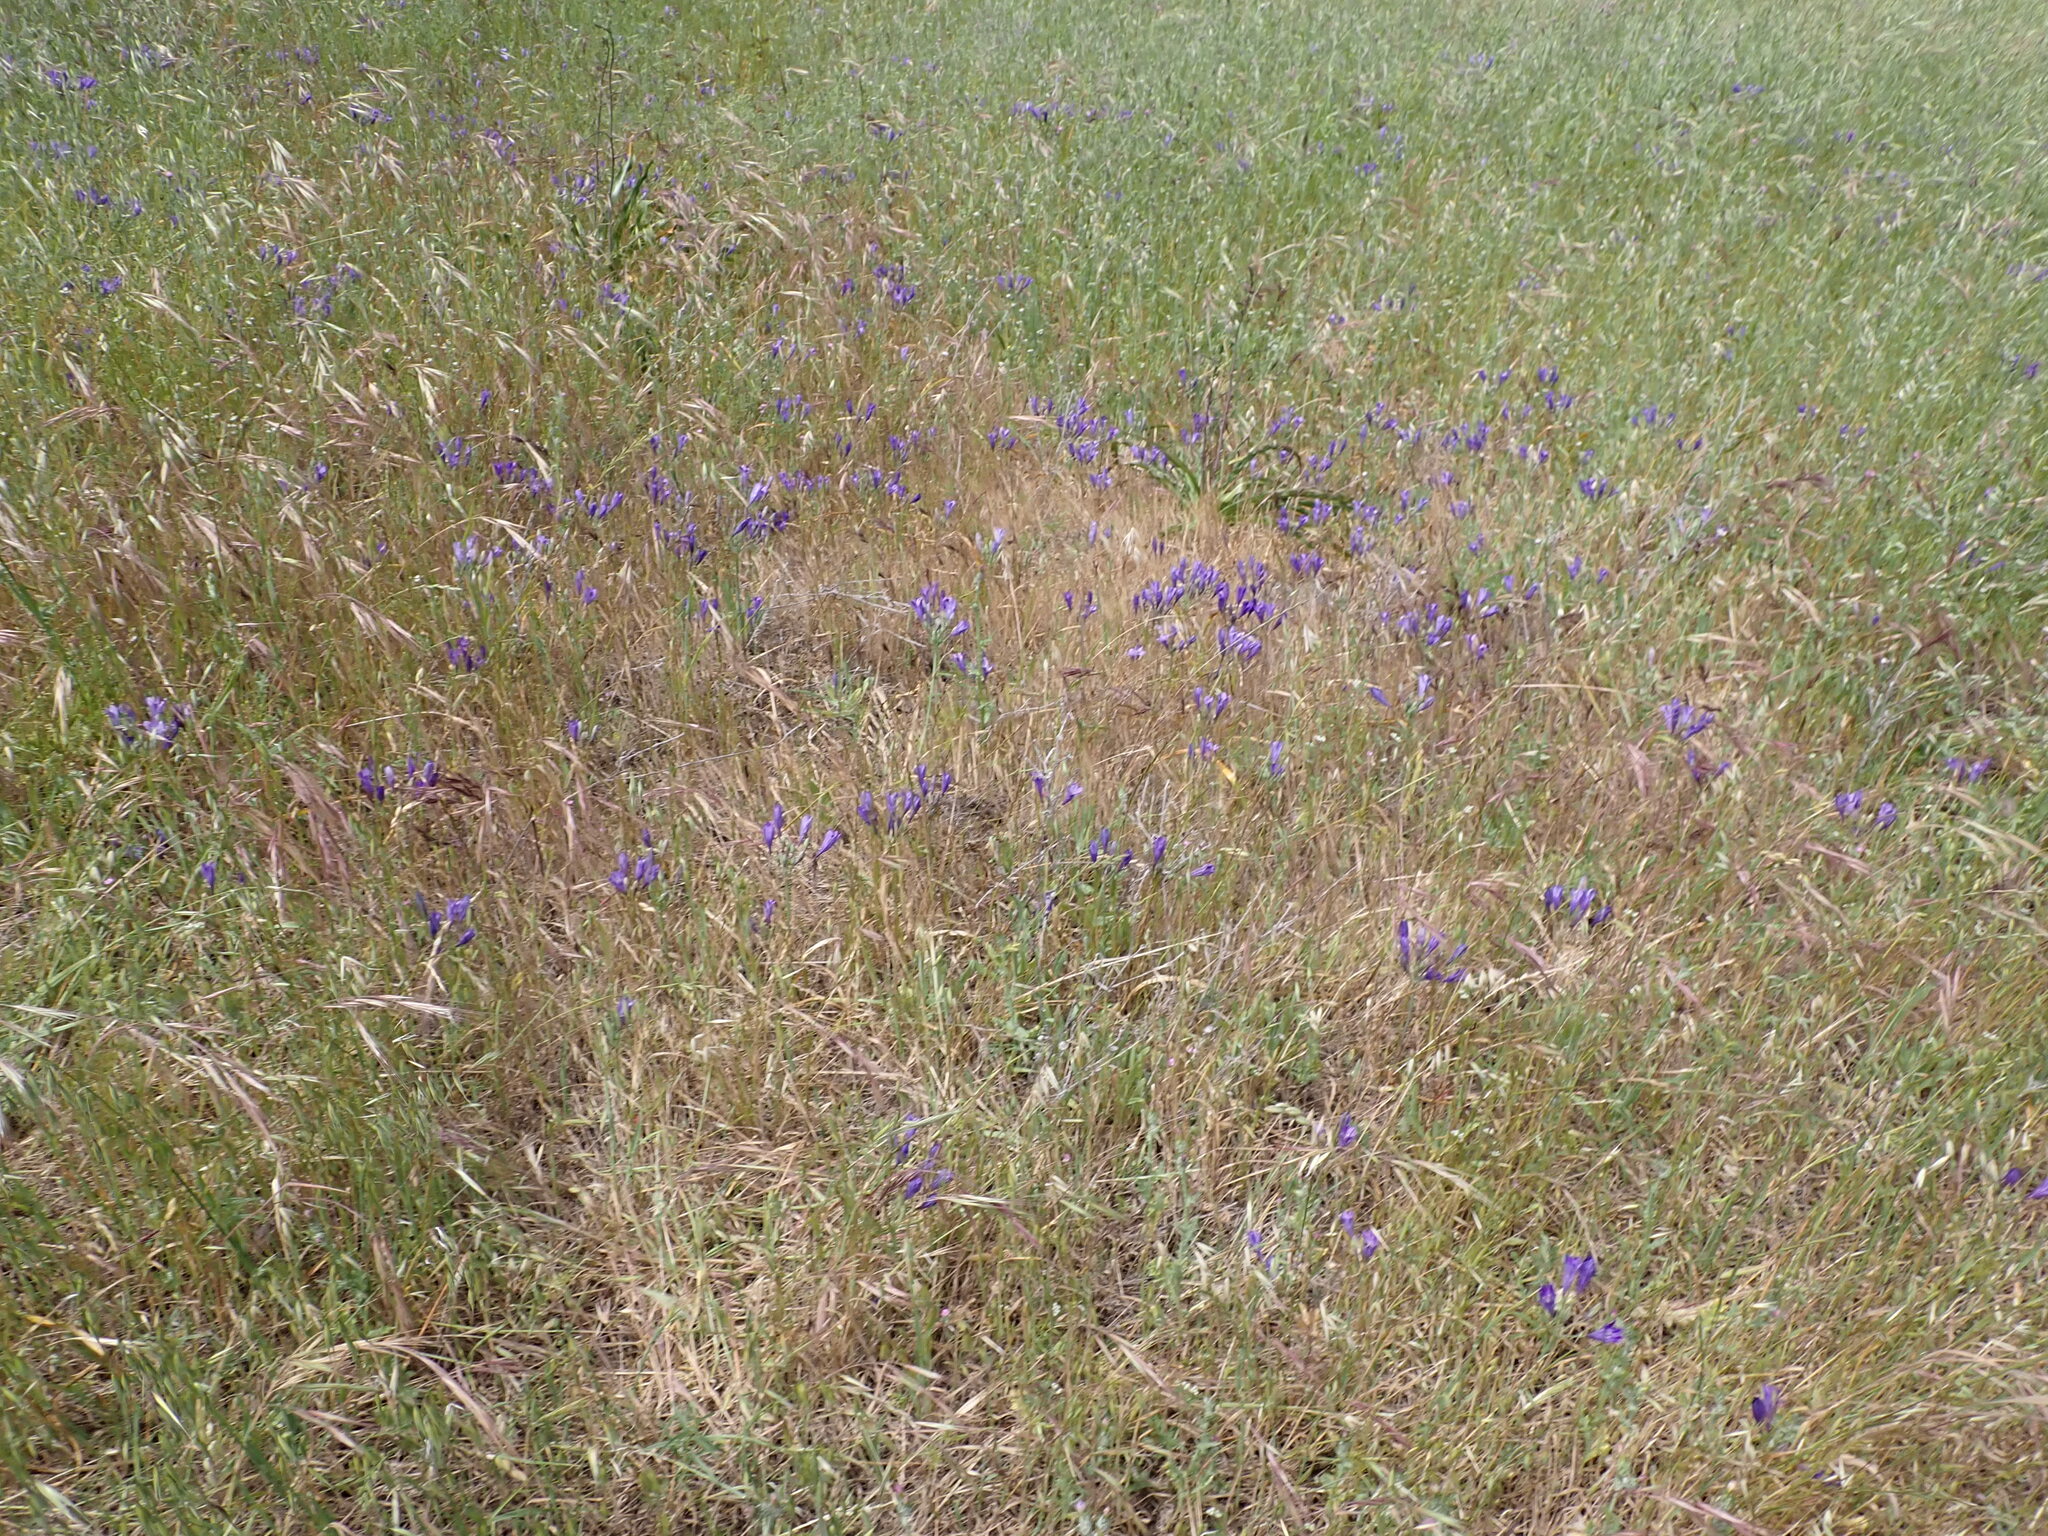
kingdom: Plantae
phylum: Tracheophyta
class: Liliopsida
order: Asparagales
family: Asparagaceae
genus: Triteleia
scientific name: Triteleia laxa
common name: Triplet-lily
